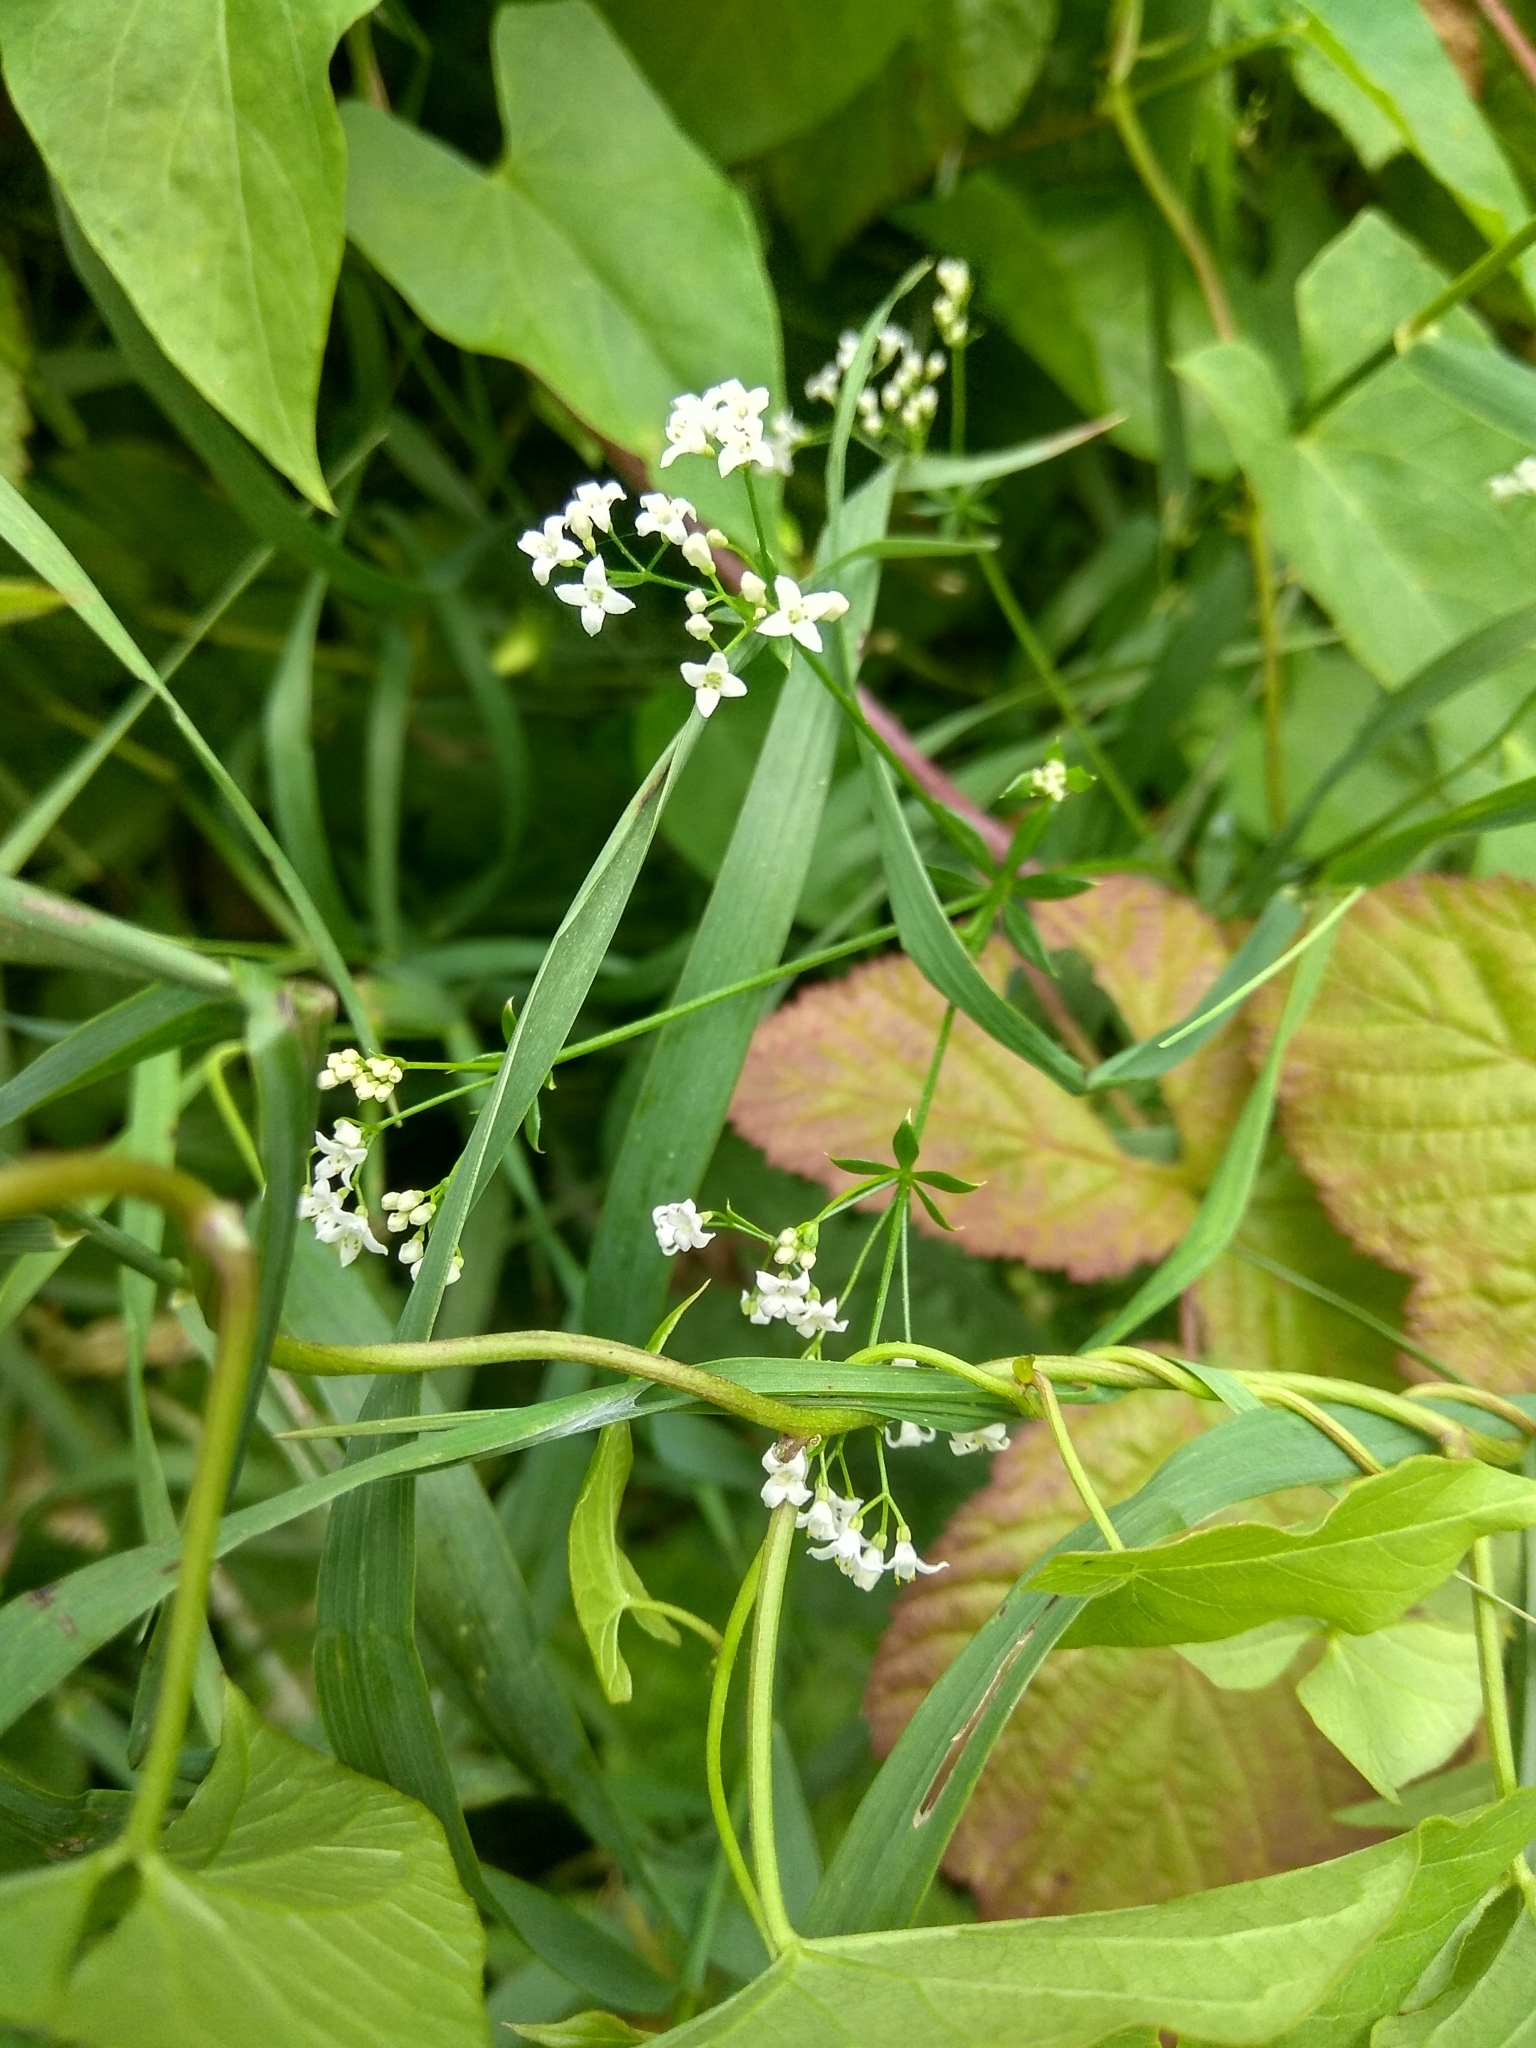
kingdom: Plantae
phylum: Tracheophyta
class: Magnoliopsida
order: Gentianales
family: Rubiaceae
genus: Galium
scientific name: Galium uliginosum
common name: Fen bedstraw
